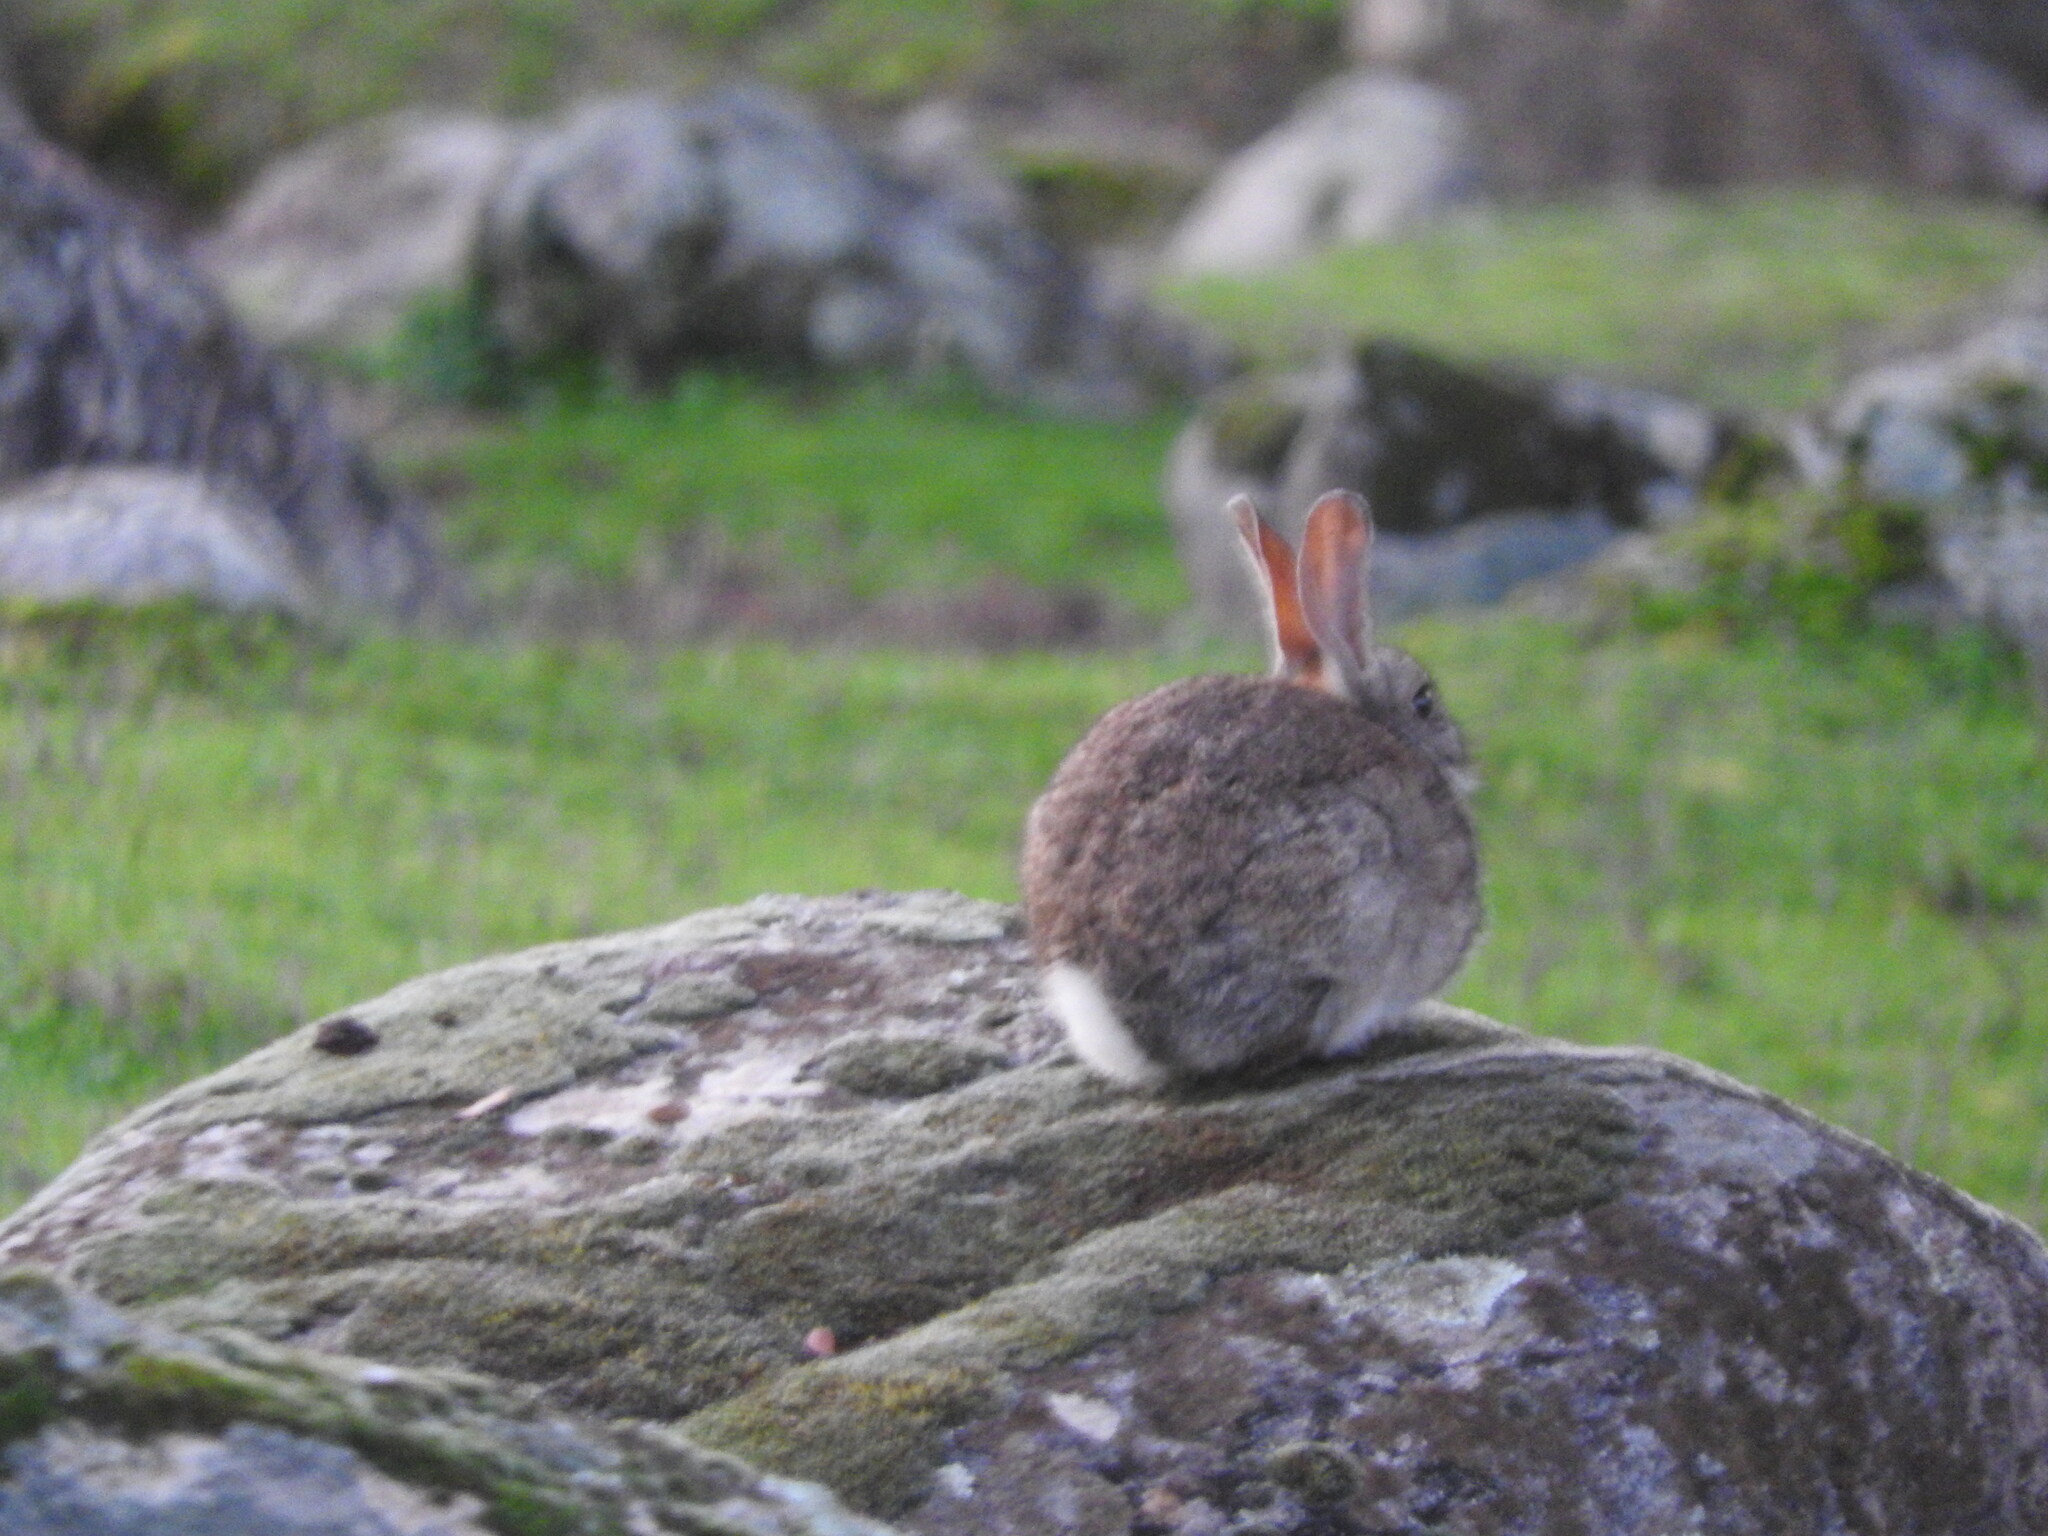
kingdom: Animalia
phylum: Chordata
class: Mammalia
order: Lagomorpha
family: Leporidae
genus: Oryctolagus
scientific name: Oryctolagus cuniculus
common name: European rabbit
